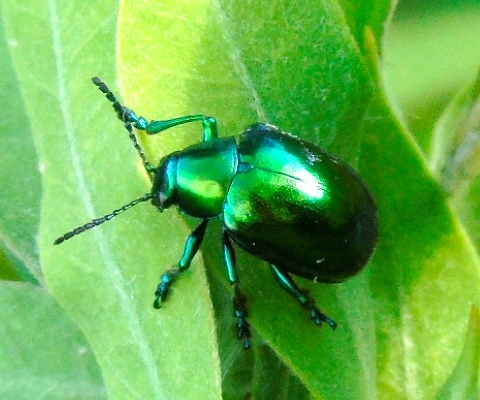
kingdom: Animalia
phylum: Arthropoda
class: Insecta
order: Coleoptera
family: Chrysomelidae
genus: Eumolpus
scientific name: Eumolpus robustus
